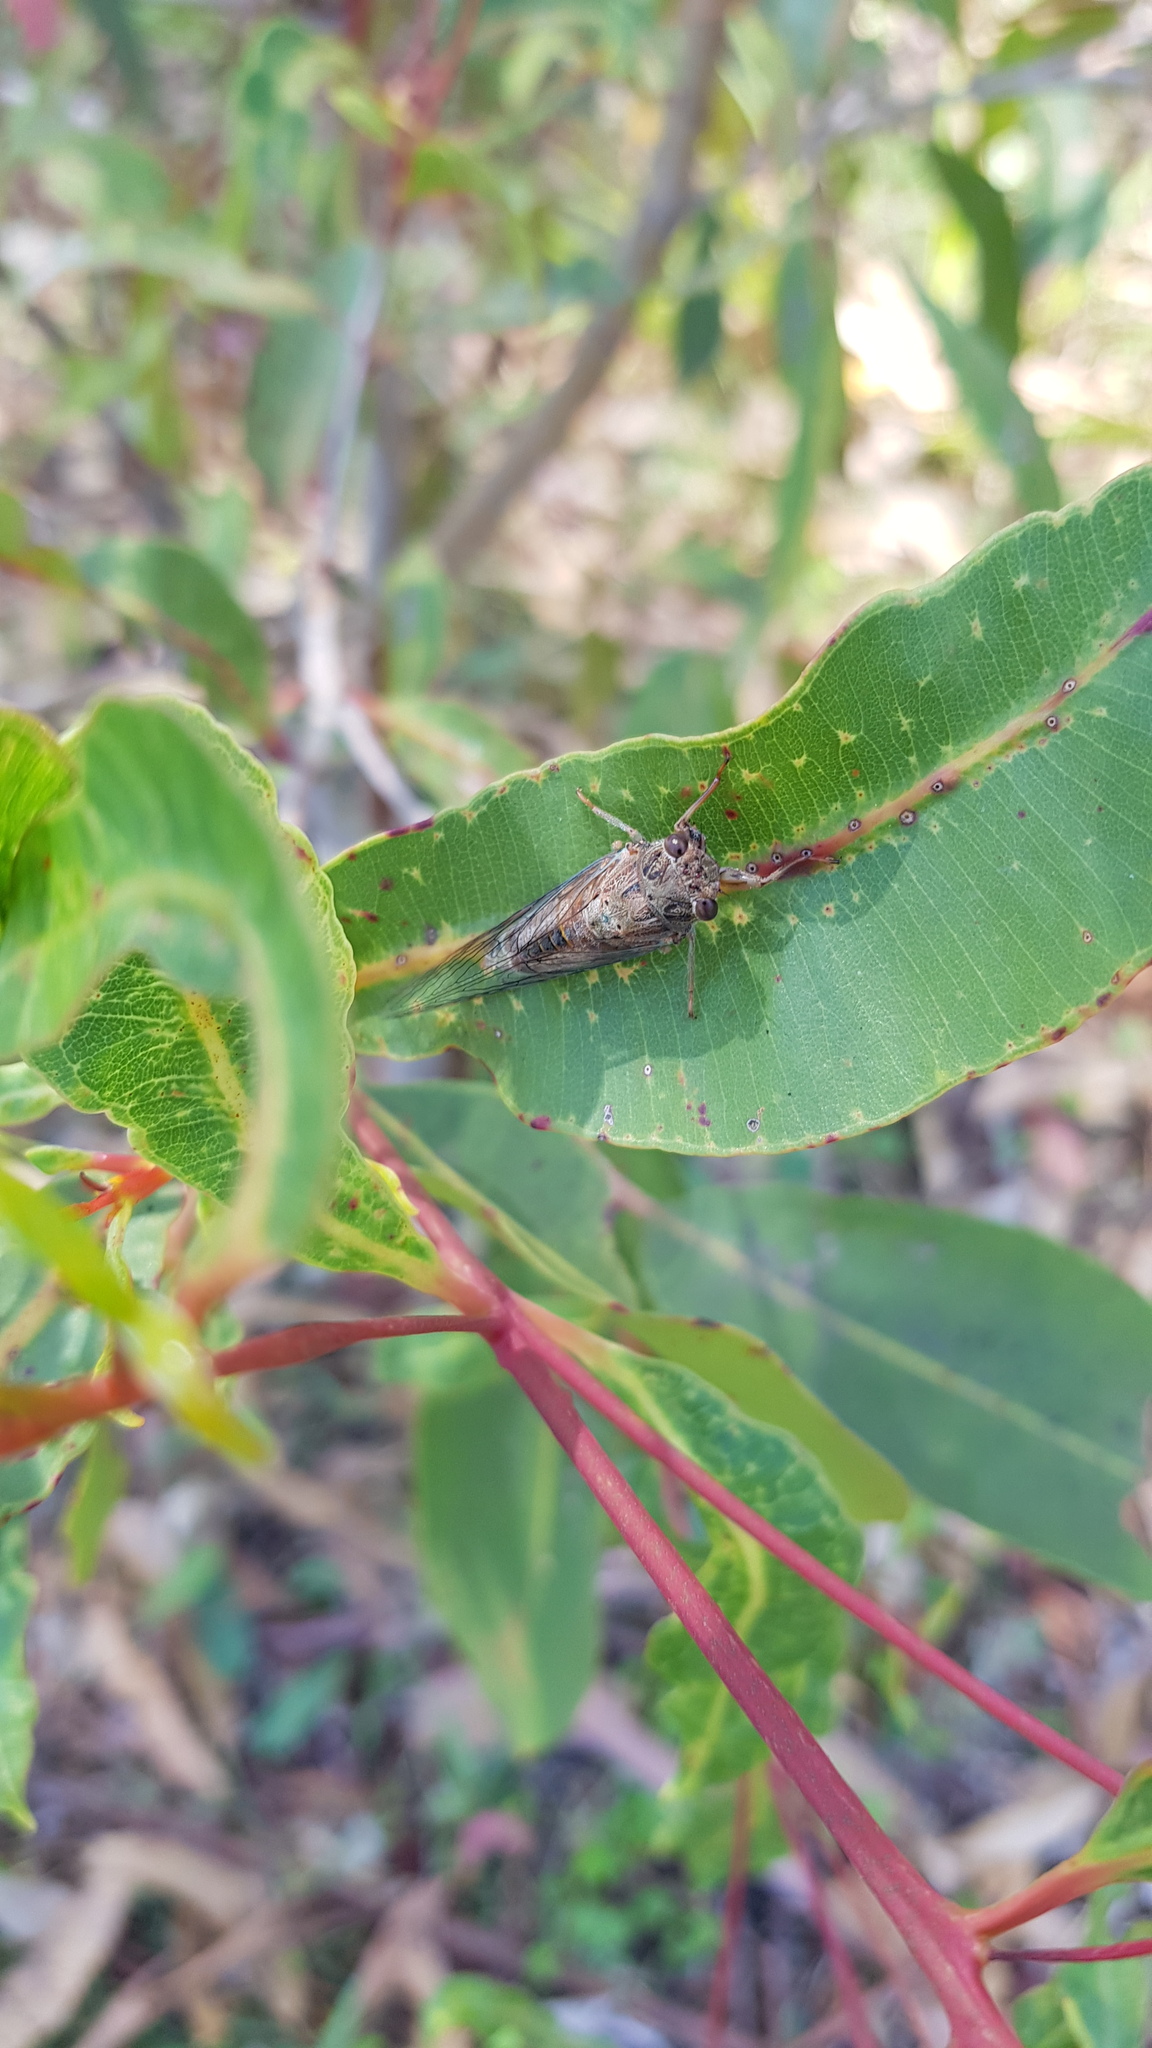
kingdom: Animalia
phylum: Arthropoda
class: Insecta
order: Hemiptera
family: Cicadidae
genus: Yoyetta
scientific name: Yoyetta celis
